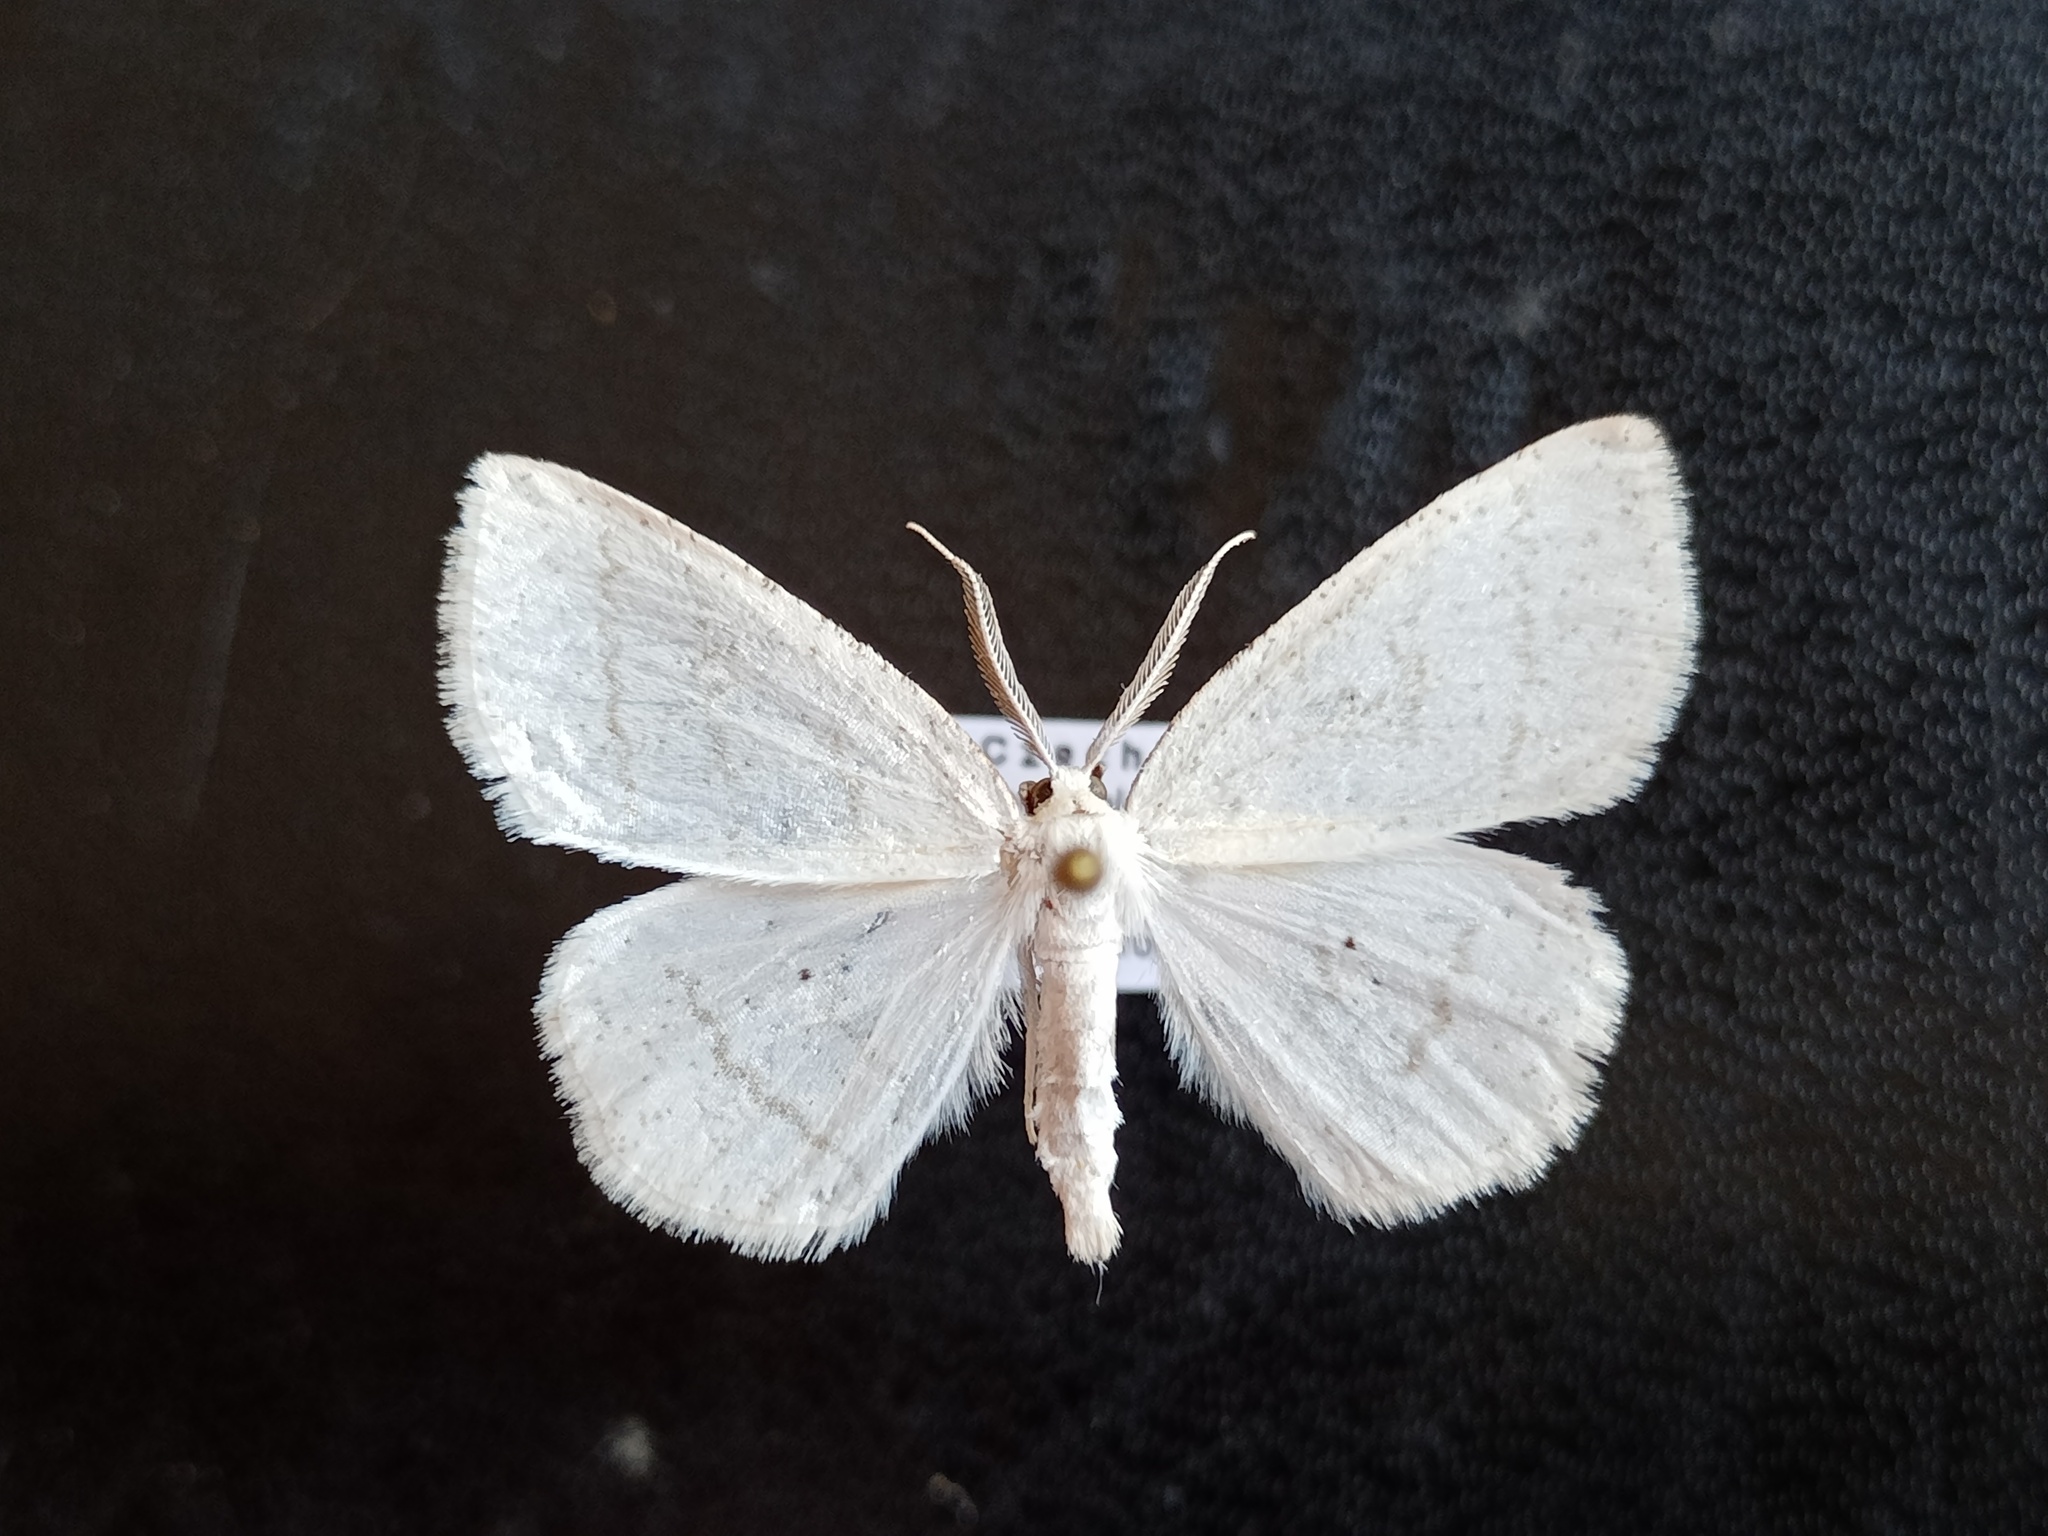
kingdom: Animalia
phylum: Arthropoda
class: Insecta
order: Lepidoptera
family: Geometridae
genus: Cabera
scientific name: Cabera pusaria
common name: Common white wave
